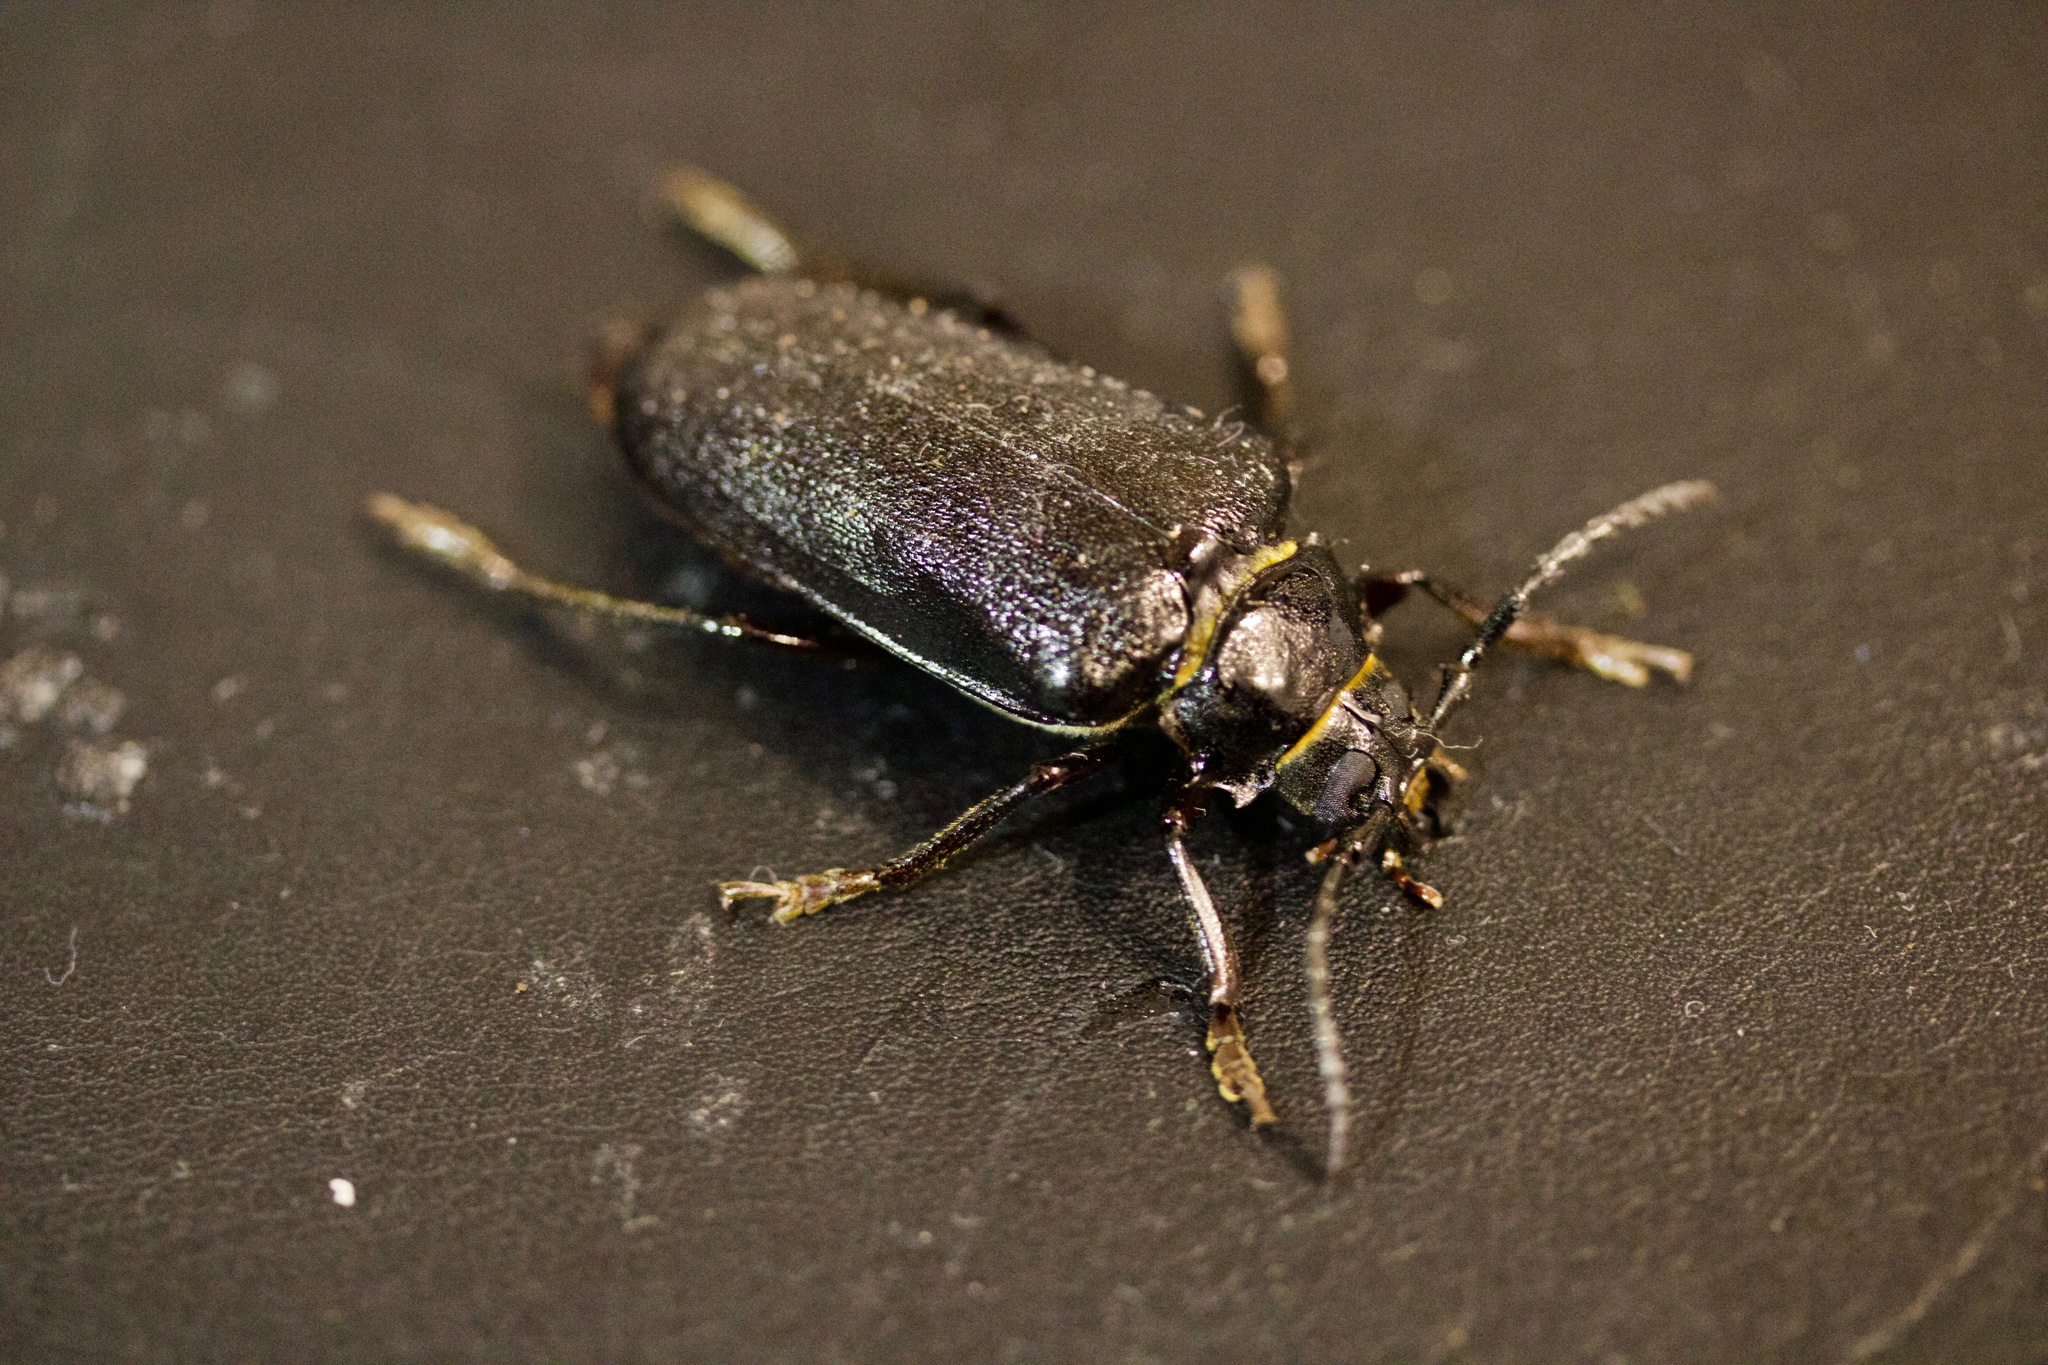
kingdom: Animalia
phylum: Arthropoda
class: Insecta
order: Coleoptera
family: Cerambycidae
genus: Prionus
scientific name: Prionus coriarius
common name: Tanner beetle
